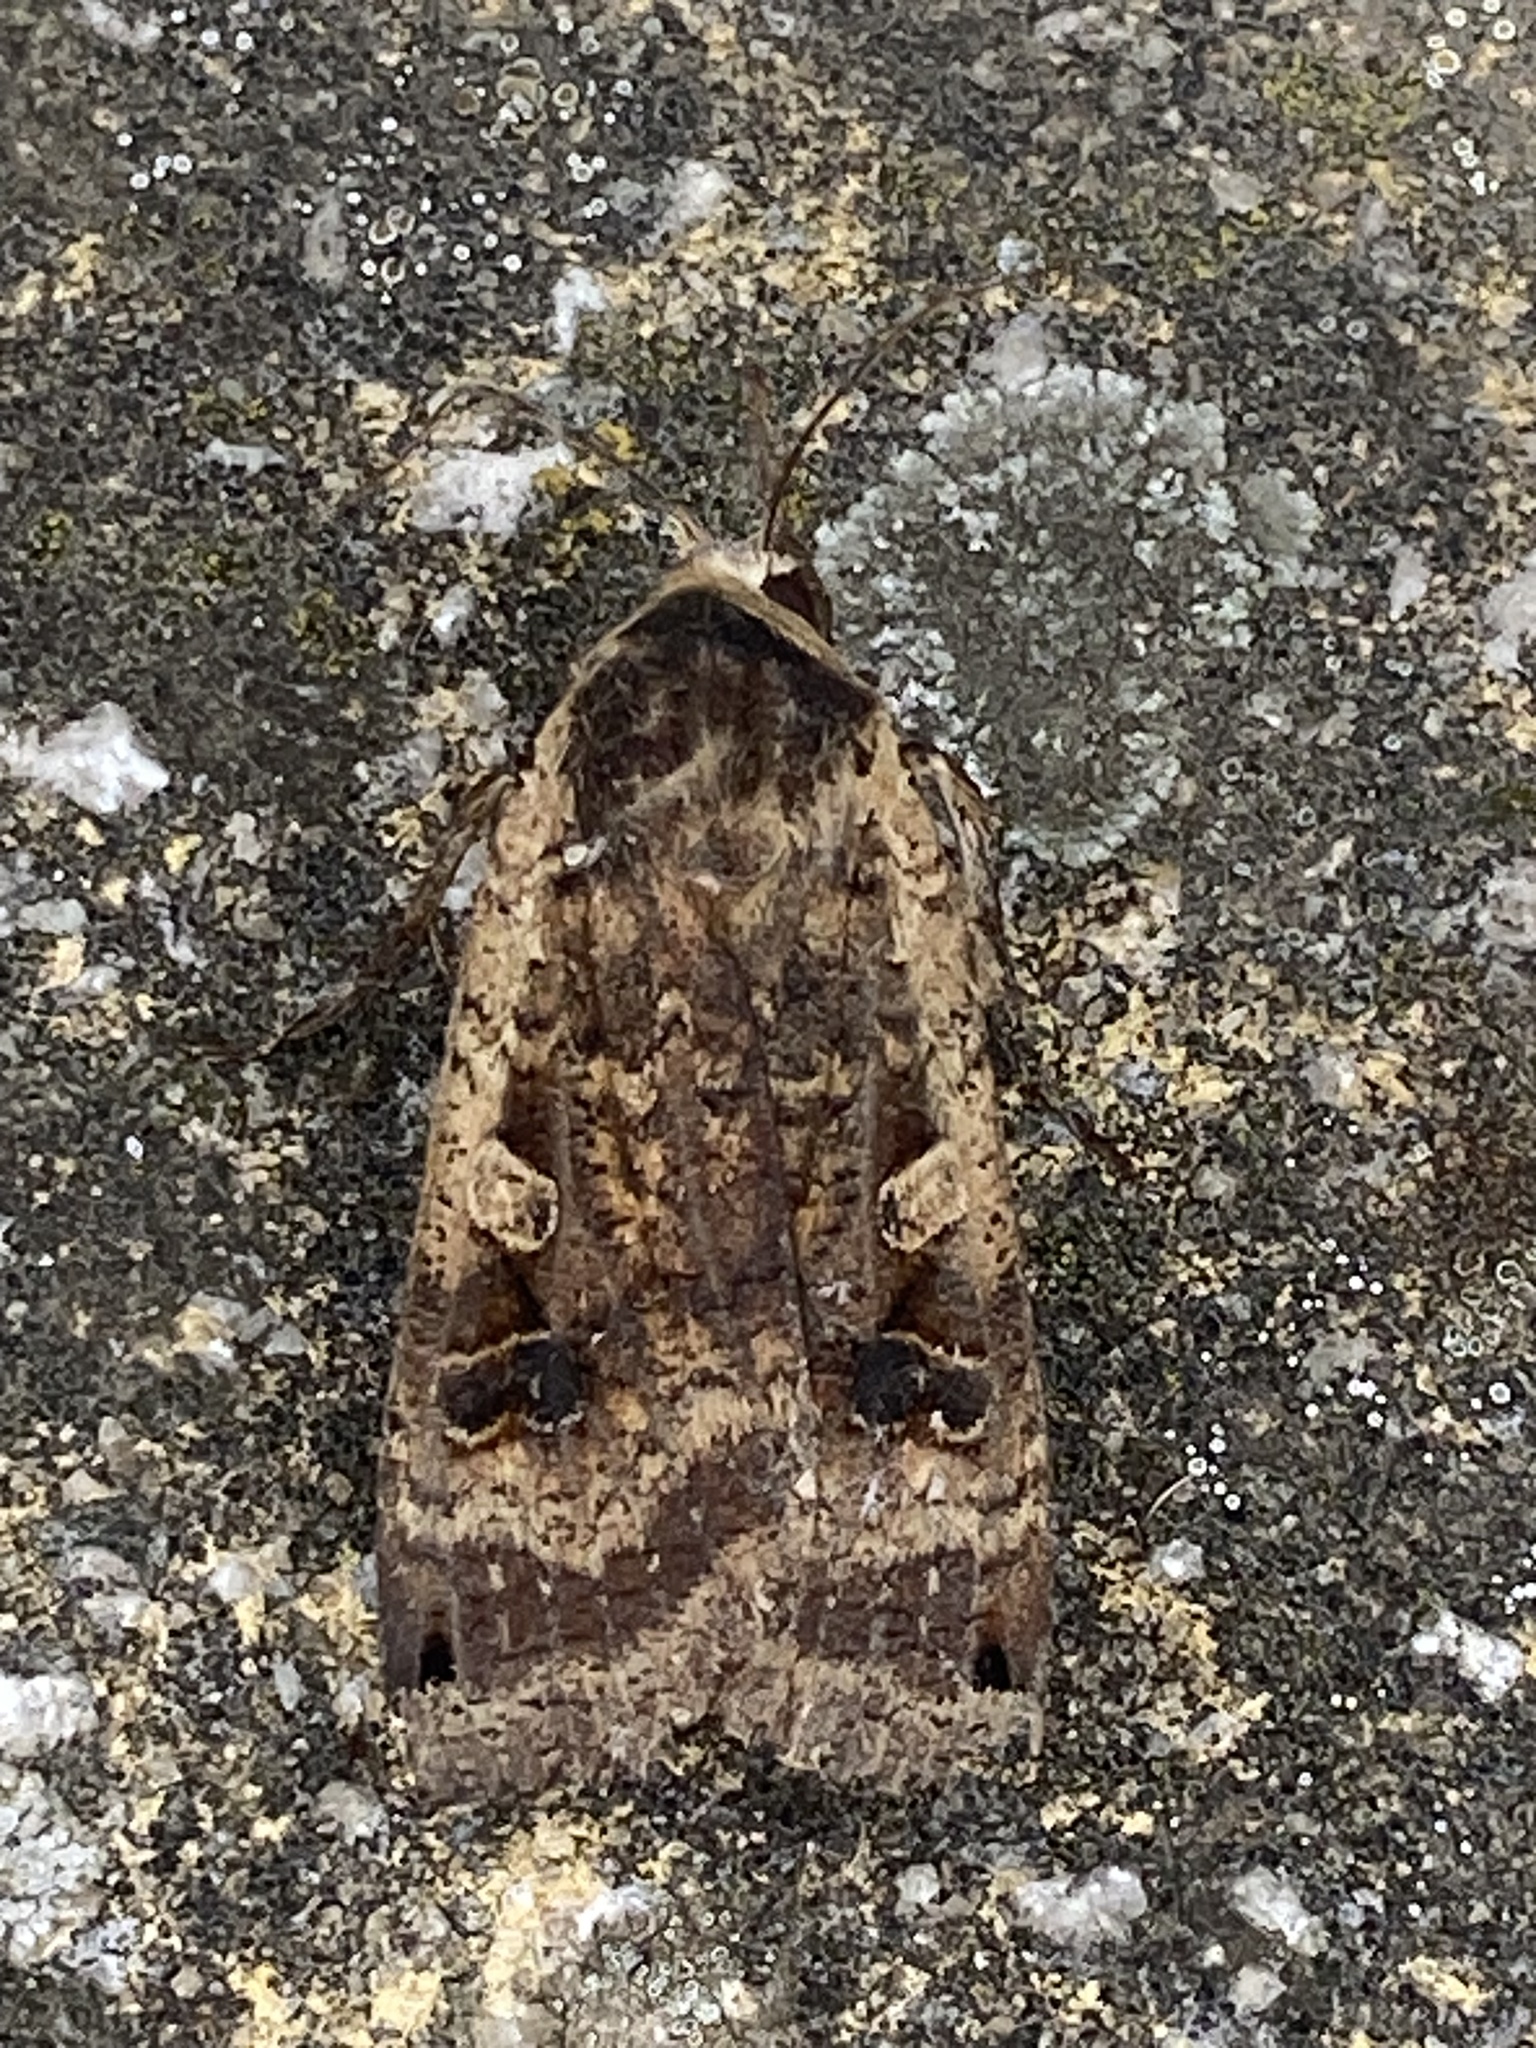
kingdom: Animalia
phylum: Arthropoda
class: Insecta
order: Lepidoptera
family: Noctuidae
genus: Noctua
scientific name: Noctua pronuba
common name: Large yellow underwing
